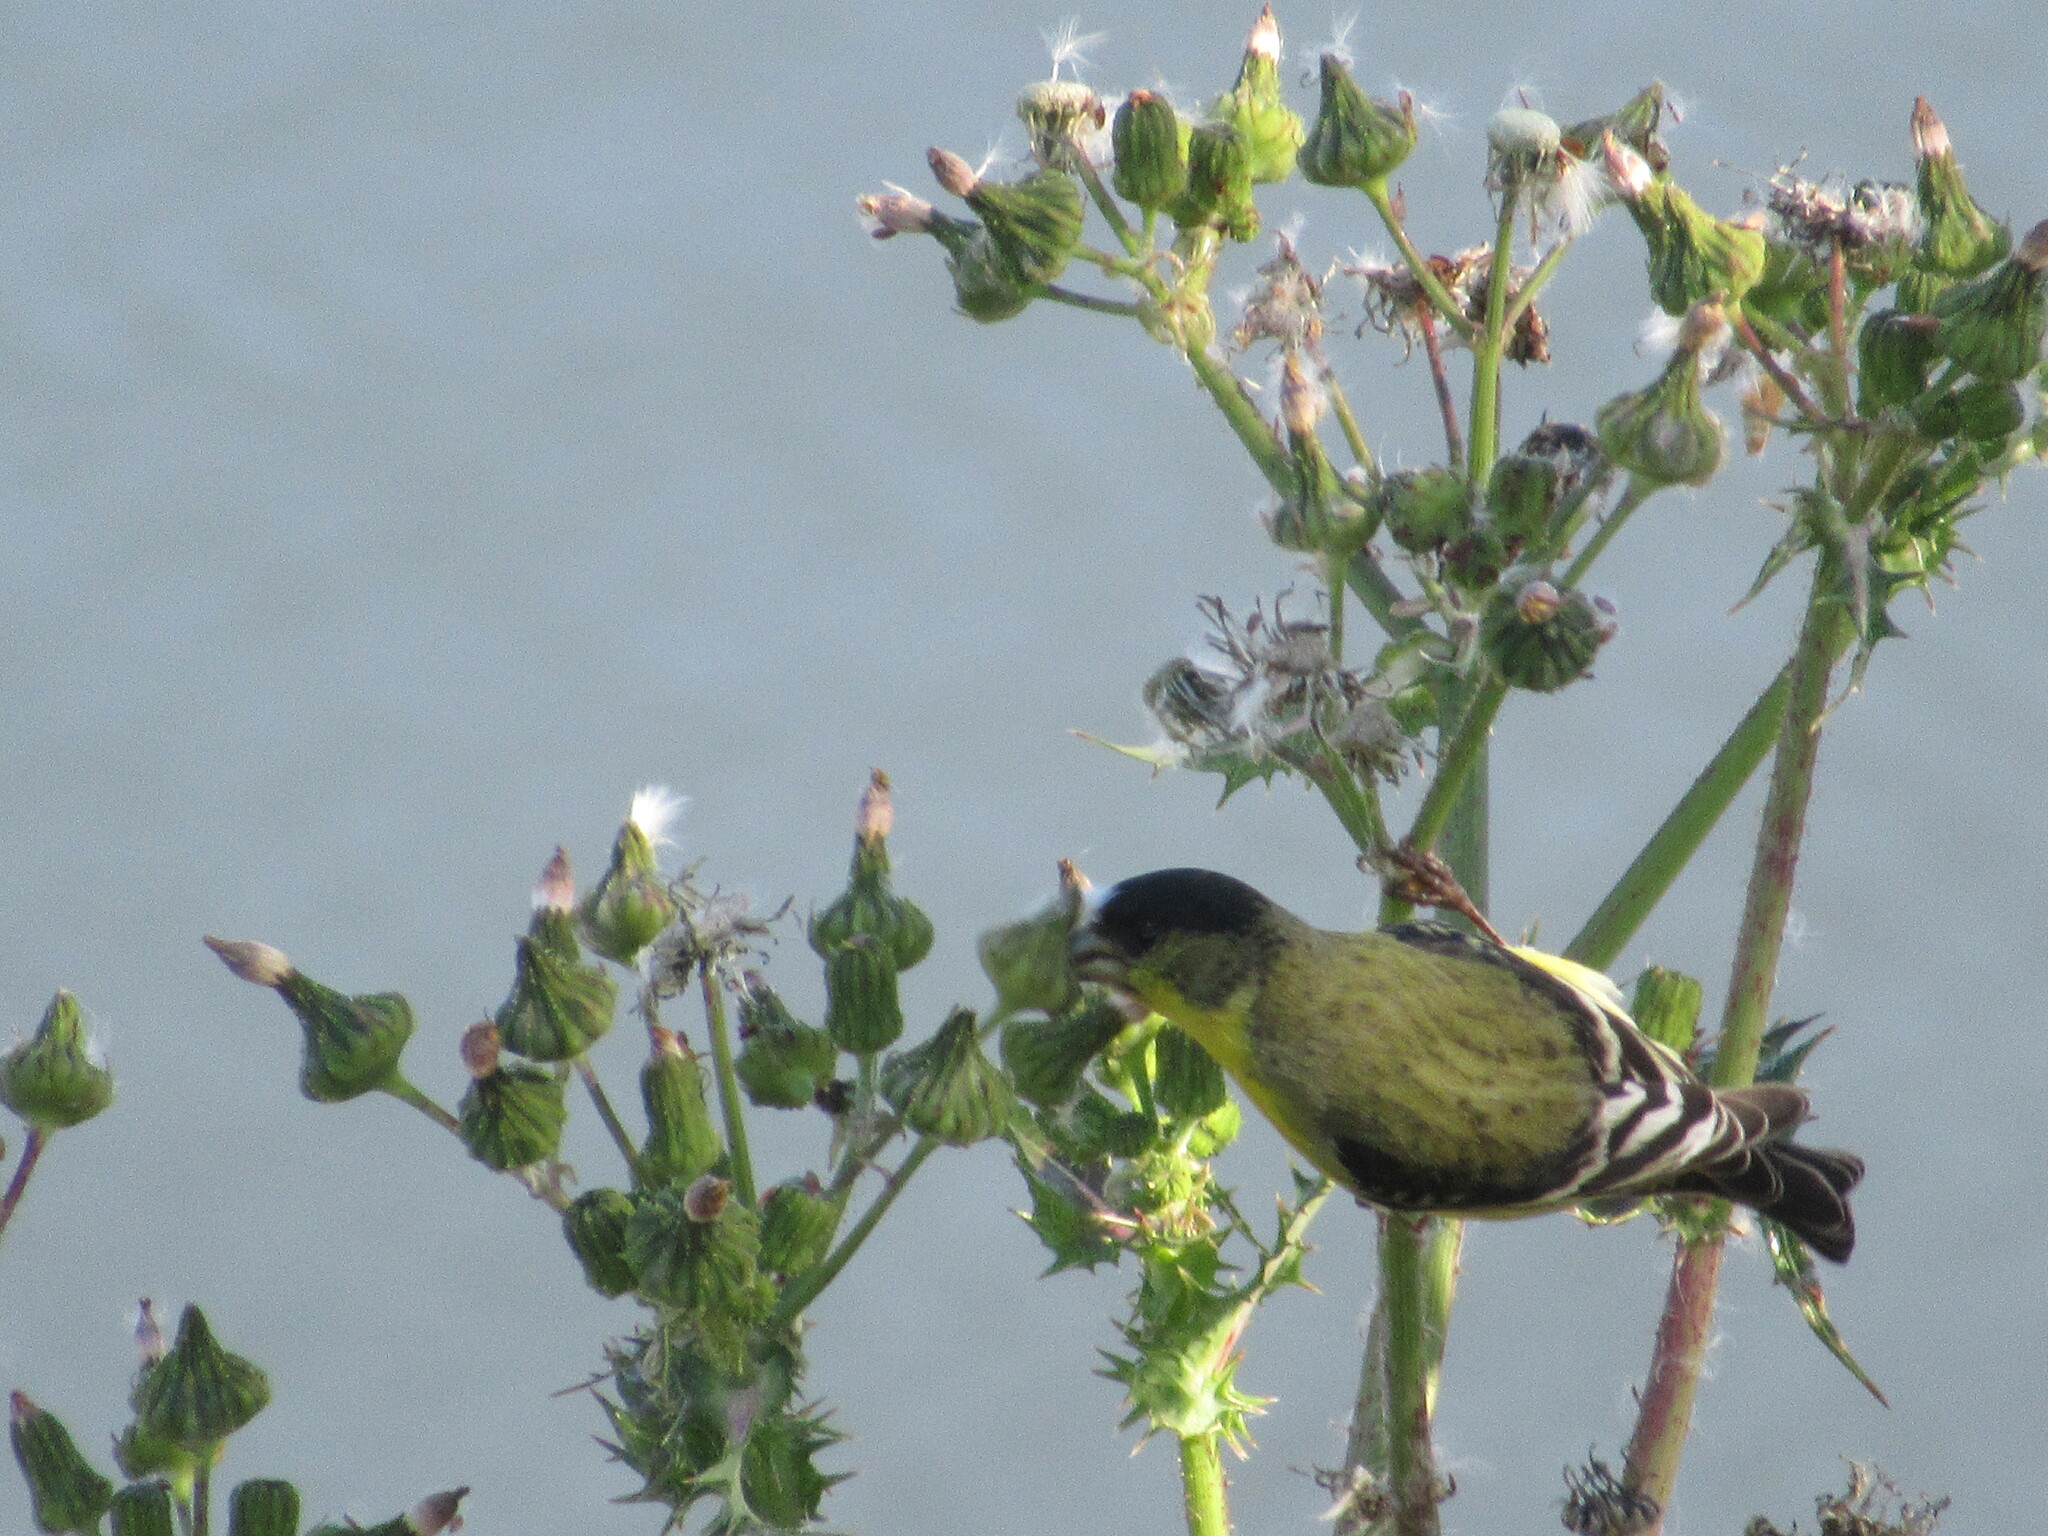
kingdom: Animalia
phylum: Chordata
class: Aves
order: Passeriformes
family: Fringillidae
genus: Spinus
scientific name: Spinus psaltria
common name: Lesser goldfinch
